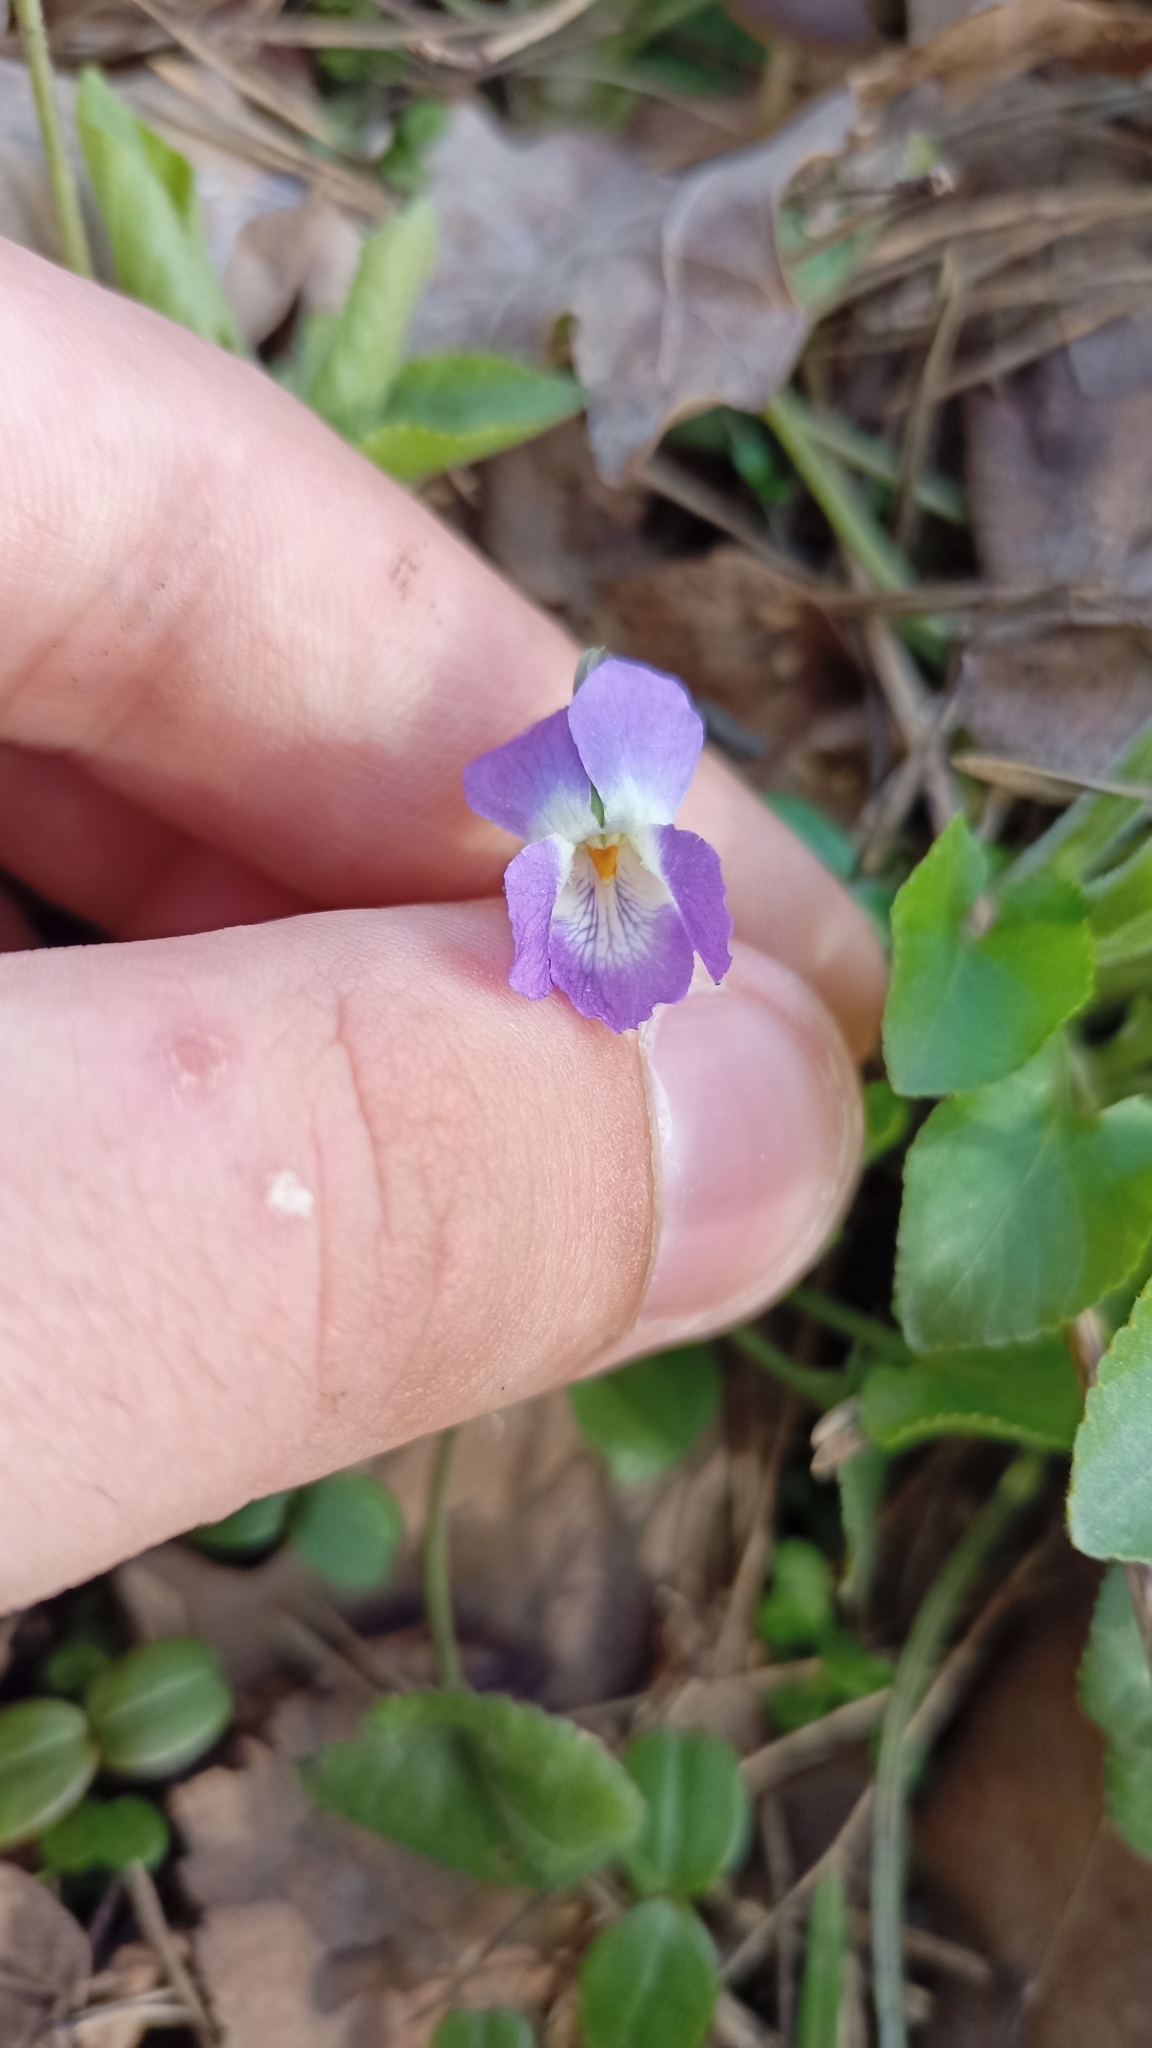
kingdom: Plantae
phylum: Tracheophyta
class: Magnoliopsida
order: Malpighiales
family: Violaceae
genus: Viola
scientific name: Viola collina
